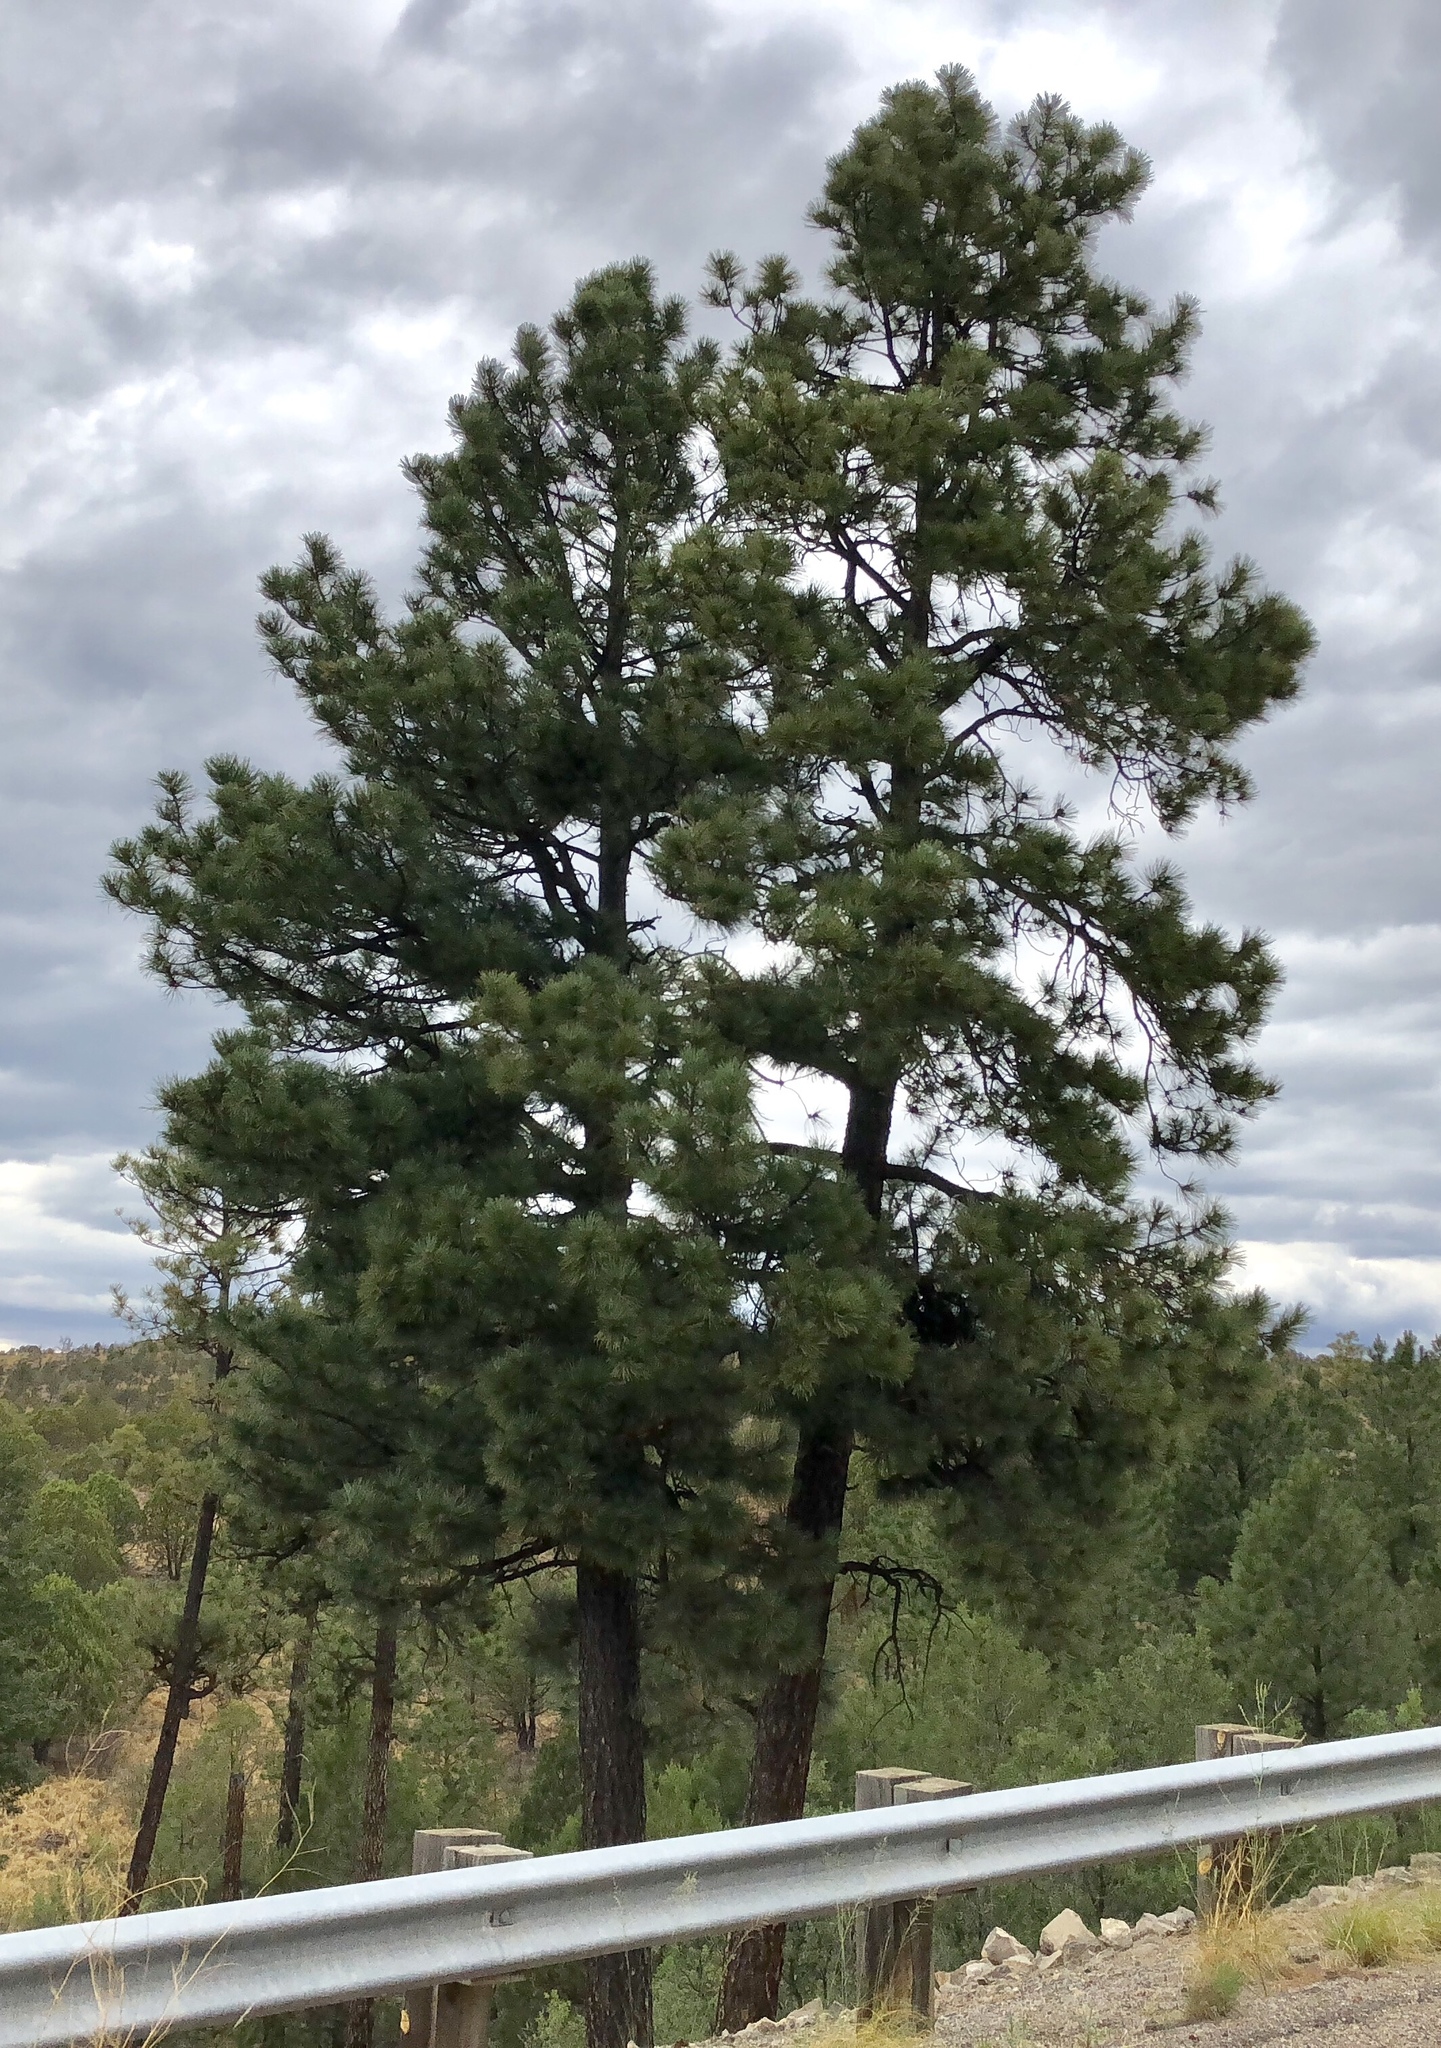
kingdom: Plantae
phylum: Tracheophyta
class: Pinopsida
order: Pinales
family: Pinaceae
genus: Pinus
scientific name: Pinus ponderosa
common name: Western yellow-pine
